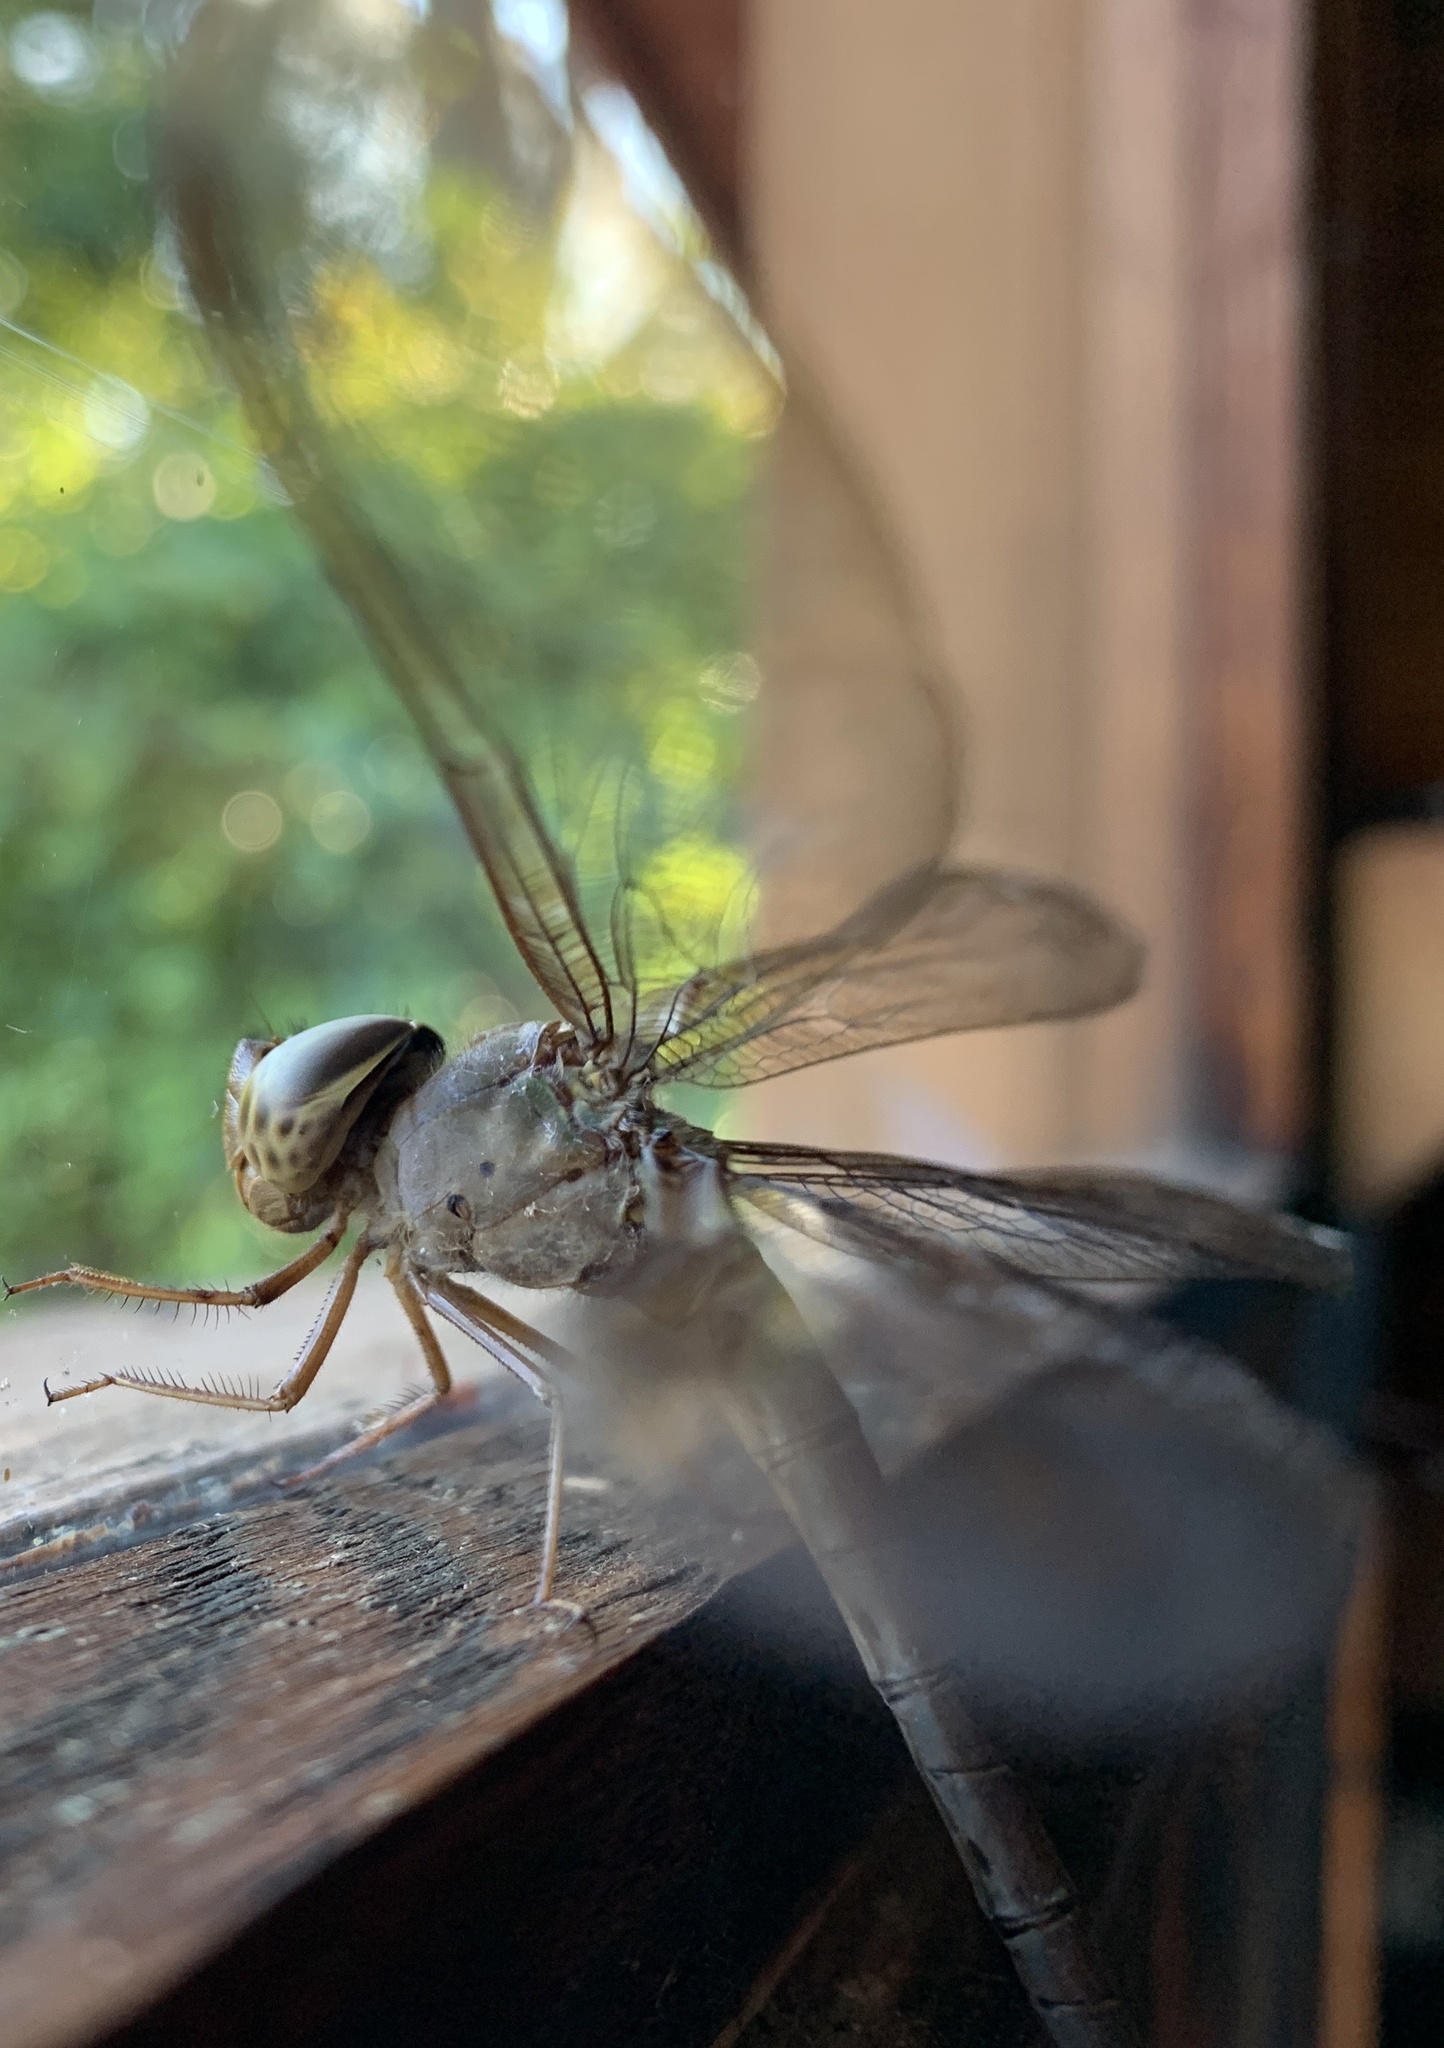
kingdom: Animalia
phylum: Arthropoda
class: Insecta
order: Odonata
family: Aeshnidae
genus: Gynacantha
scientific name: Gynacantha nervosa
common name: Twilight darner
